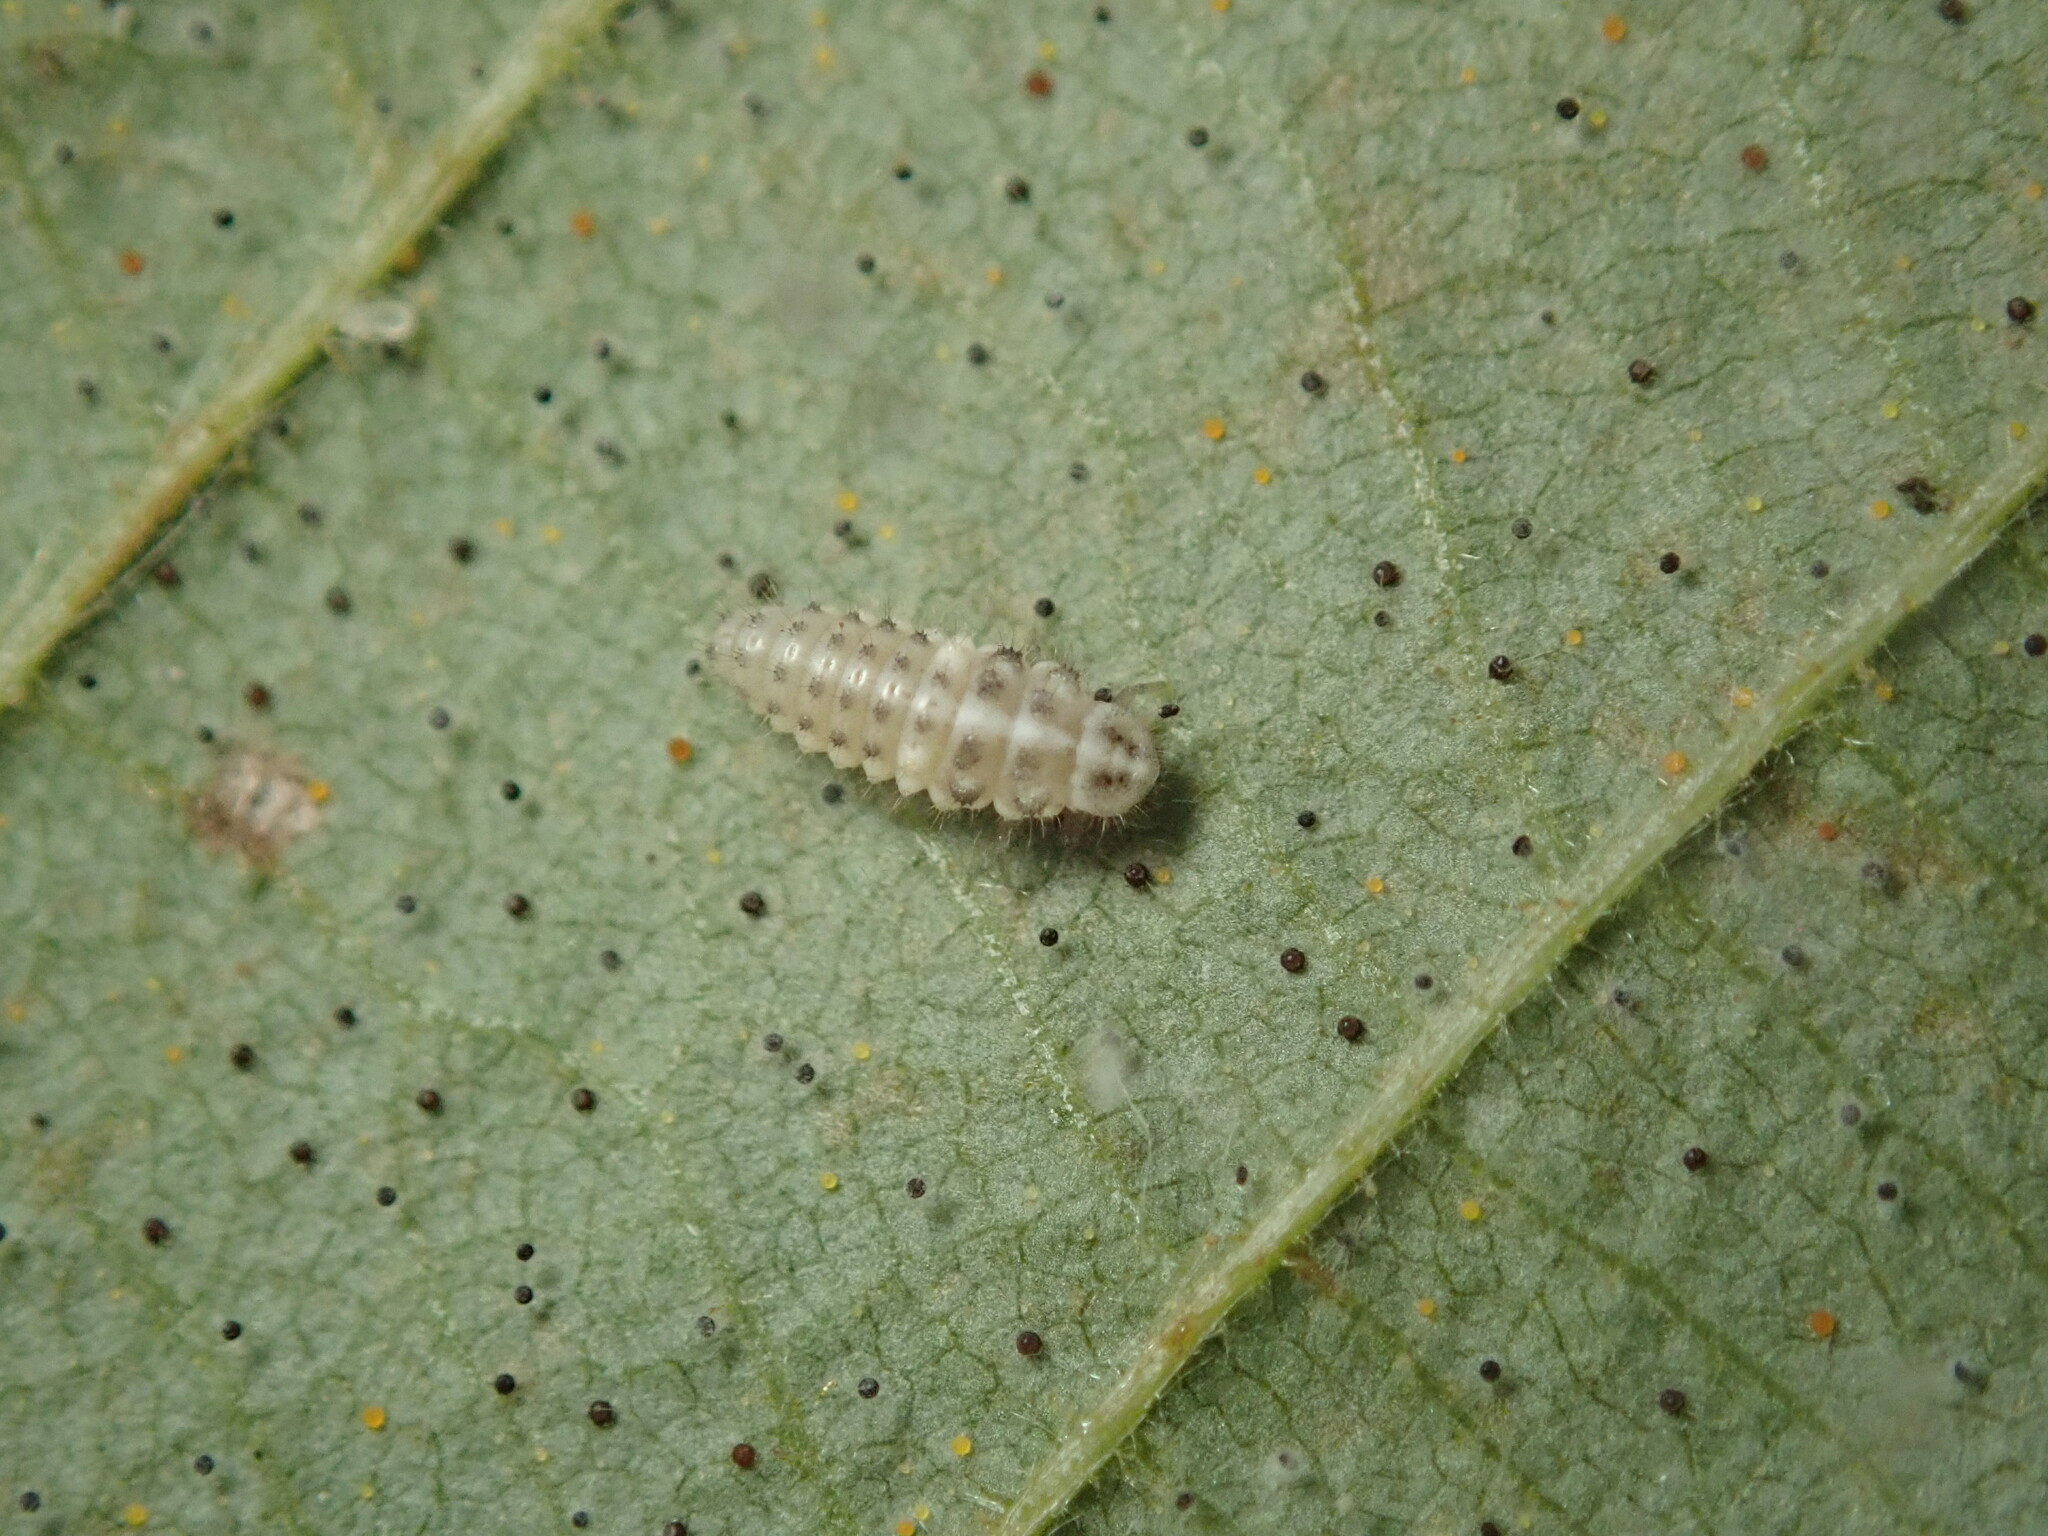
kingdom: Fungi
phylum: Ascomycota
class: Leotiomycetes
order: Helotiales
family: Erysiphaceae
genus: Phyllactinia
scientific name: Phyllactinia guttata
